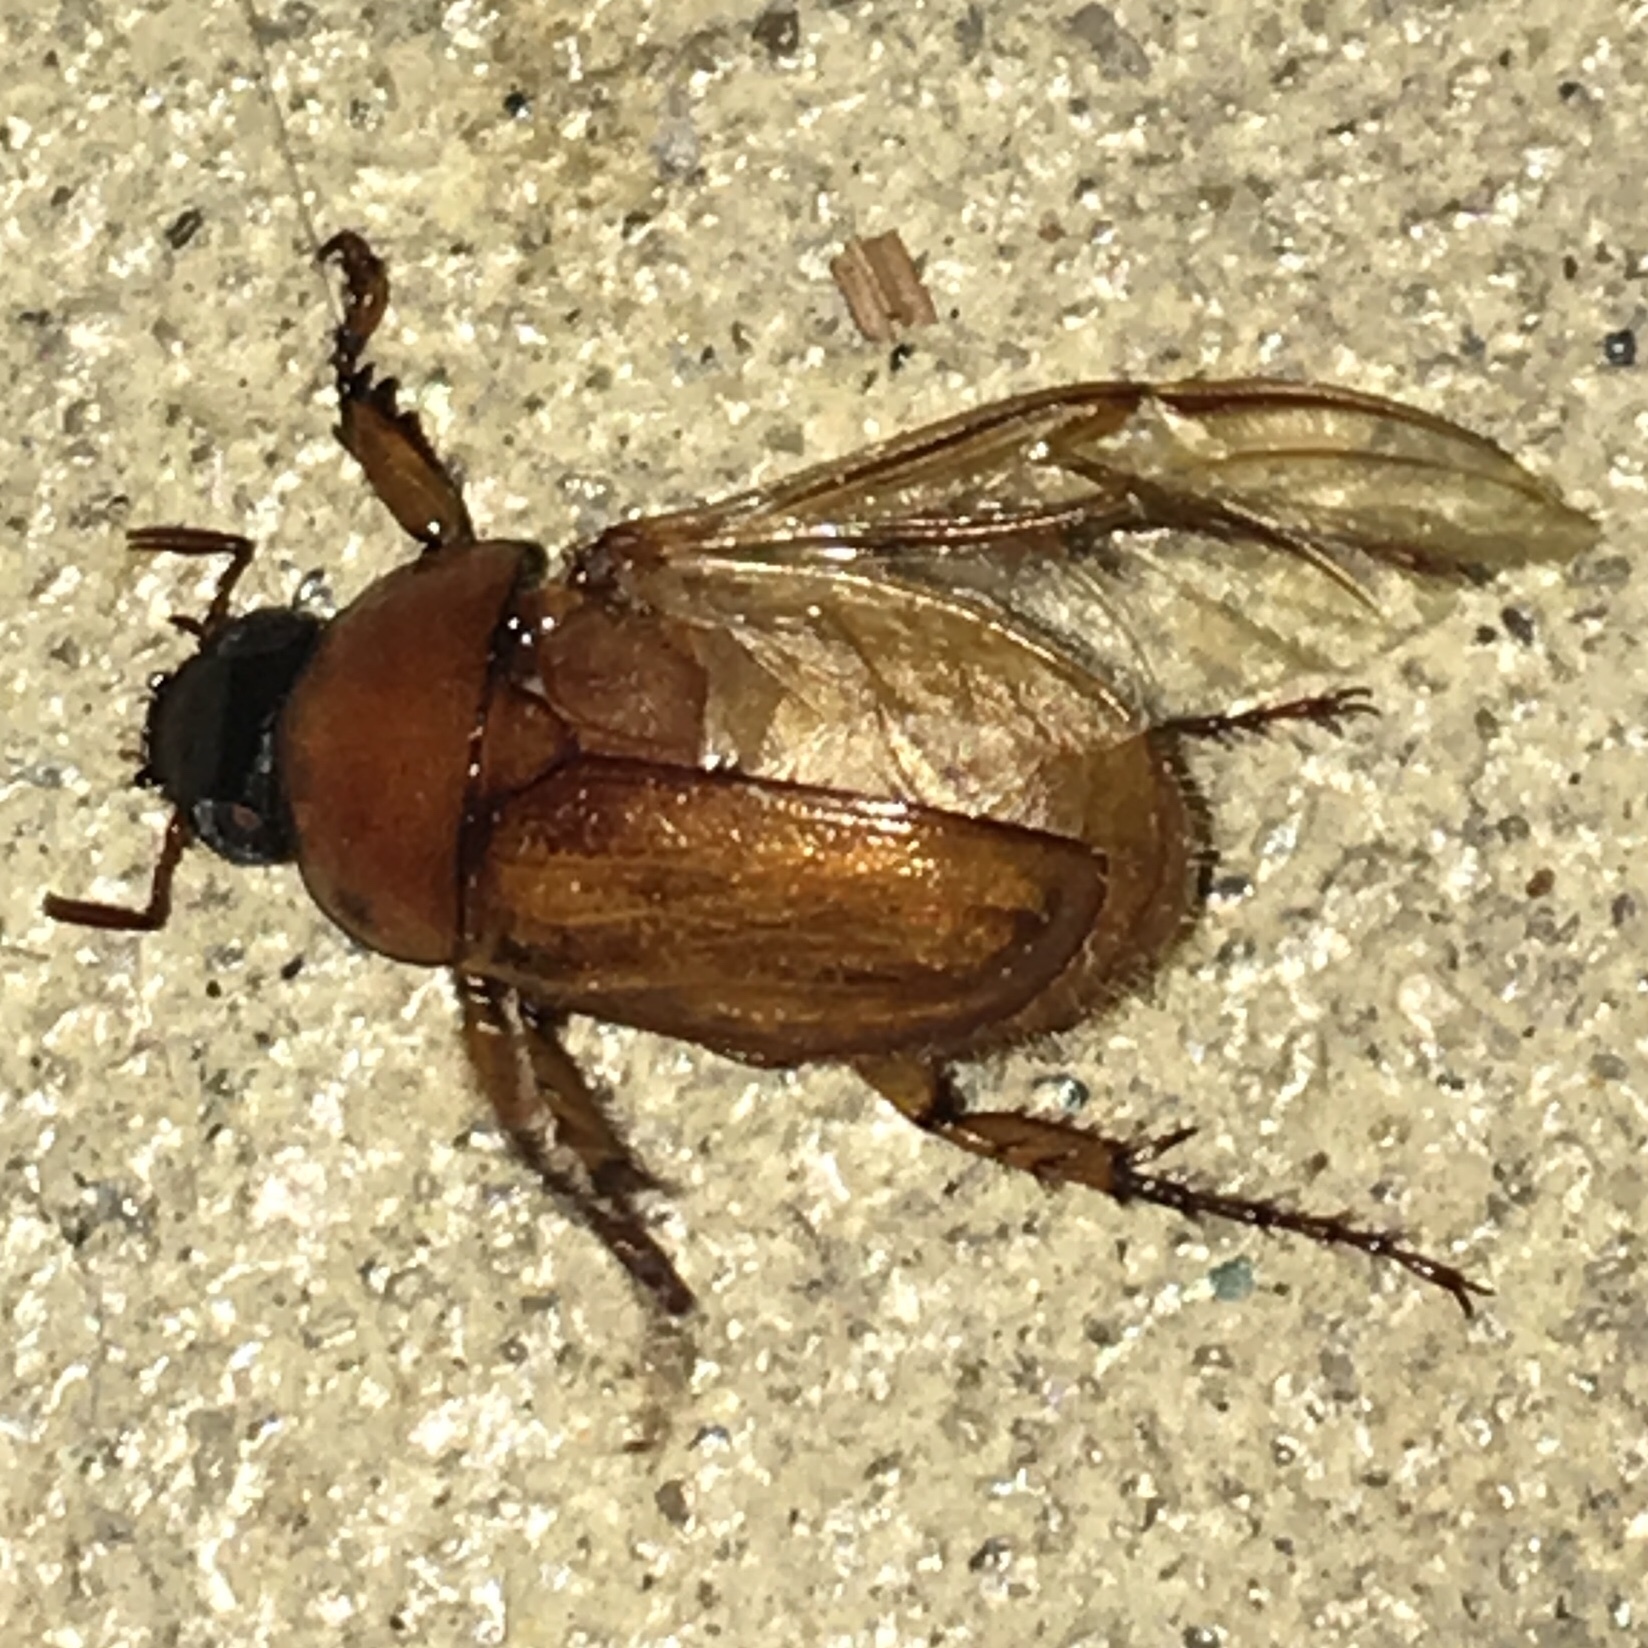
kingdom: Animalia
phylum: Arthropoda
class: Insecta
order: Coleoptera
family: Scarabaeidae
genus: Cyclocephala
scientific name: Cyclocephala lurida
